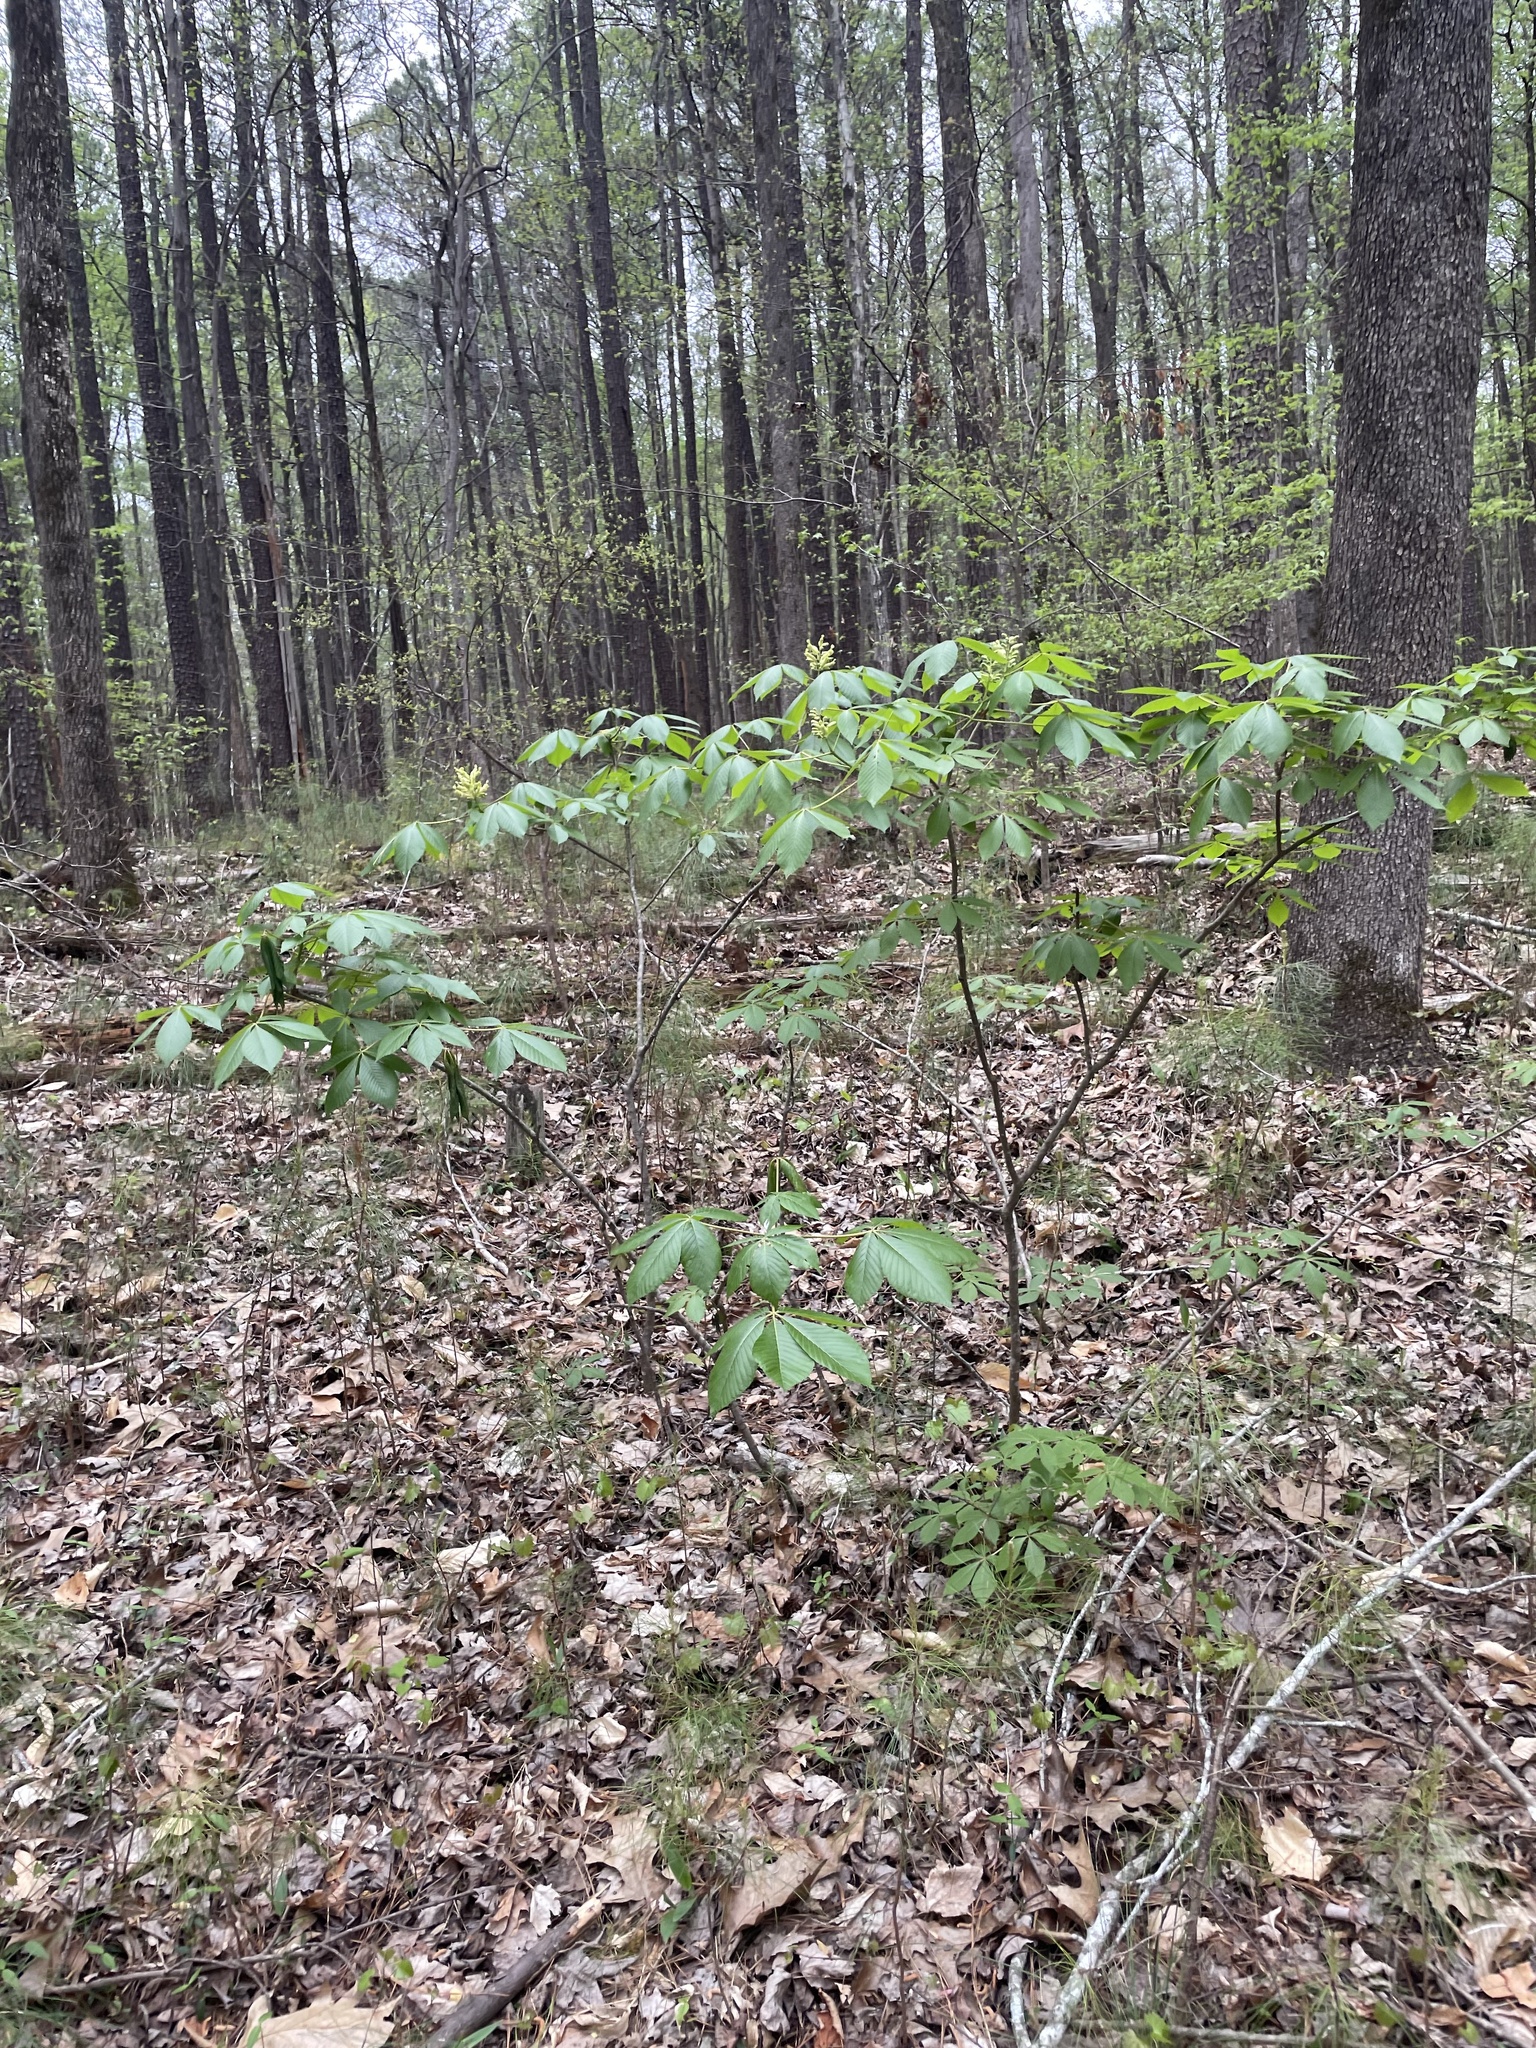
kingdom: Plantae
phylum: Tracheophyta
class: Magnoliopsida
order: Sapindales
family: Sapindaceae
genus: Aesculus
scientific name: Aesculus sylvatica
